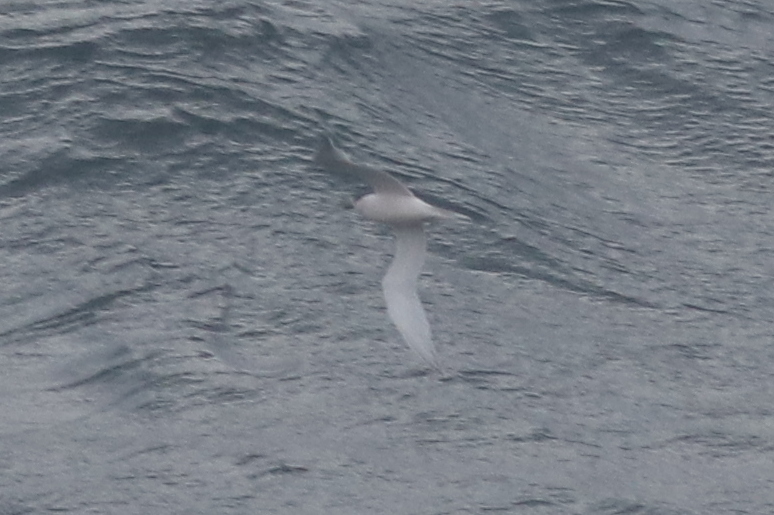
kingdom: Animalia
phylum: Chordata
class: Aves
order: Charadriiformes
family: Laridae
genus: Thalasseus
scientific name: Thalasseus sandvicensis
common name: Sandwich tern
